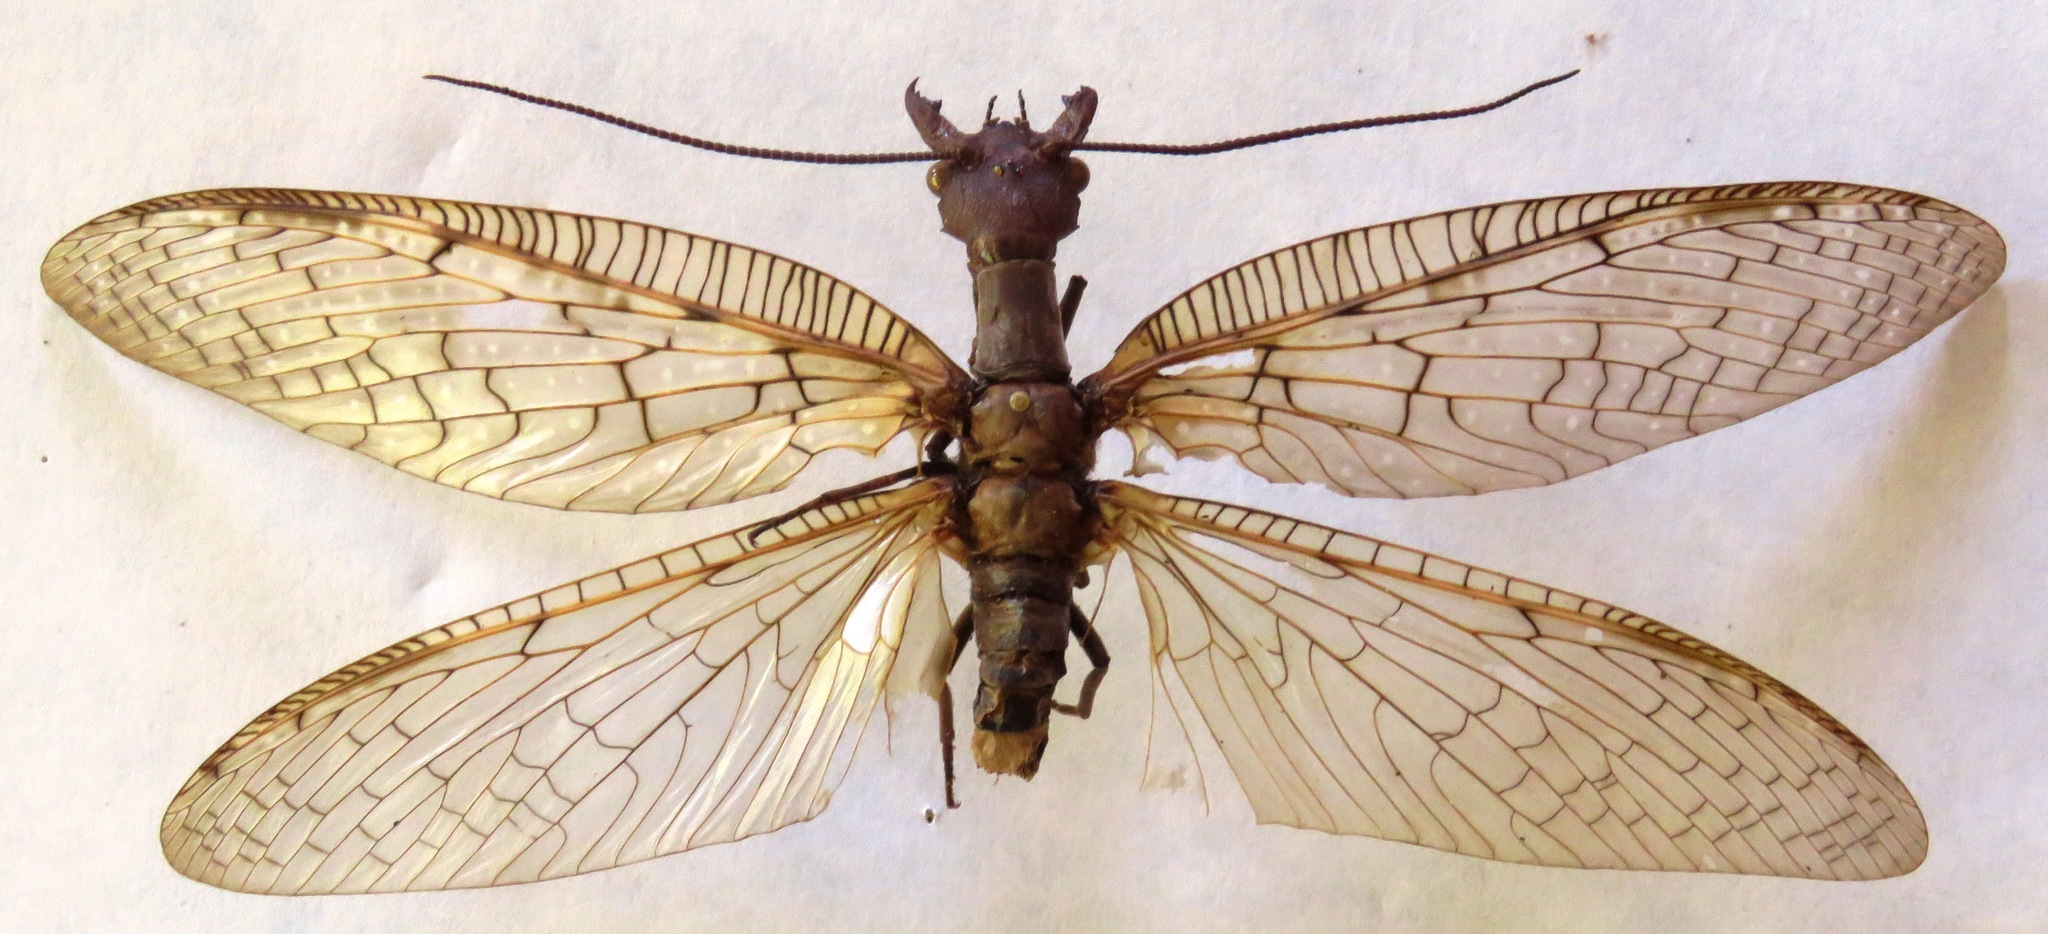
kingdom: Animalia
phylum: Arthropoda
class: Insecta
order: Megaloptera
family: Corydalidae
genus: Corydalus
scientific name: Corydalus magnus
